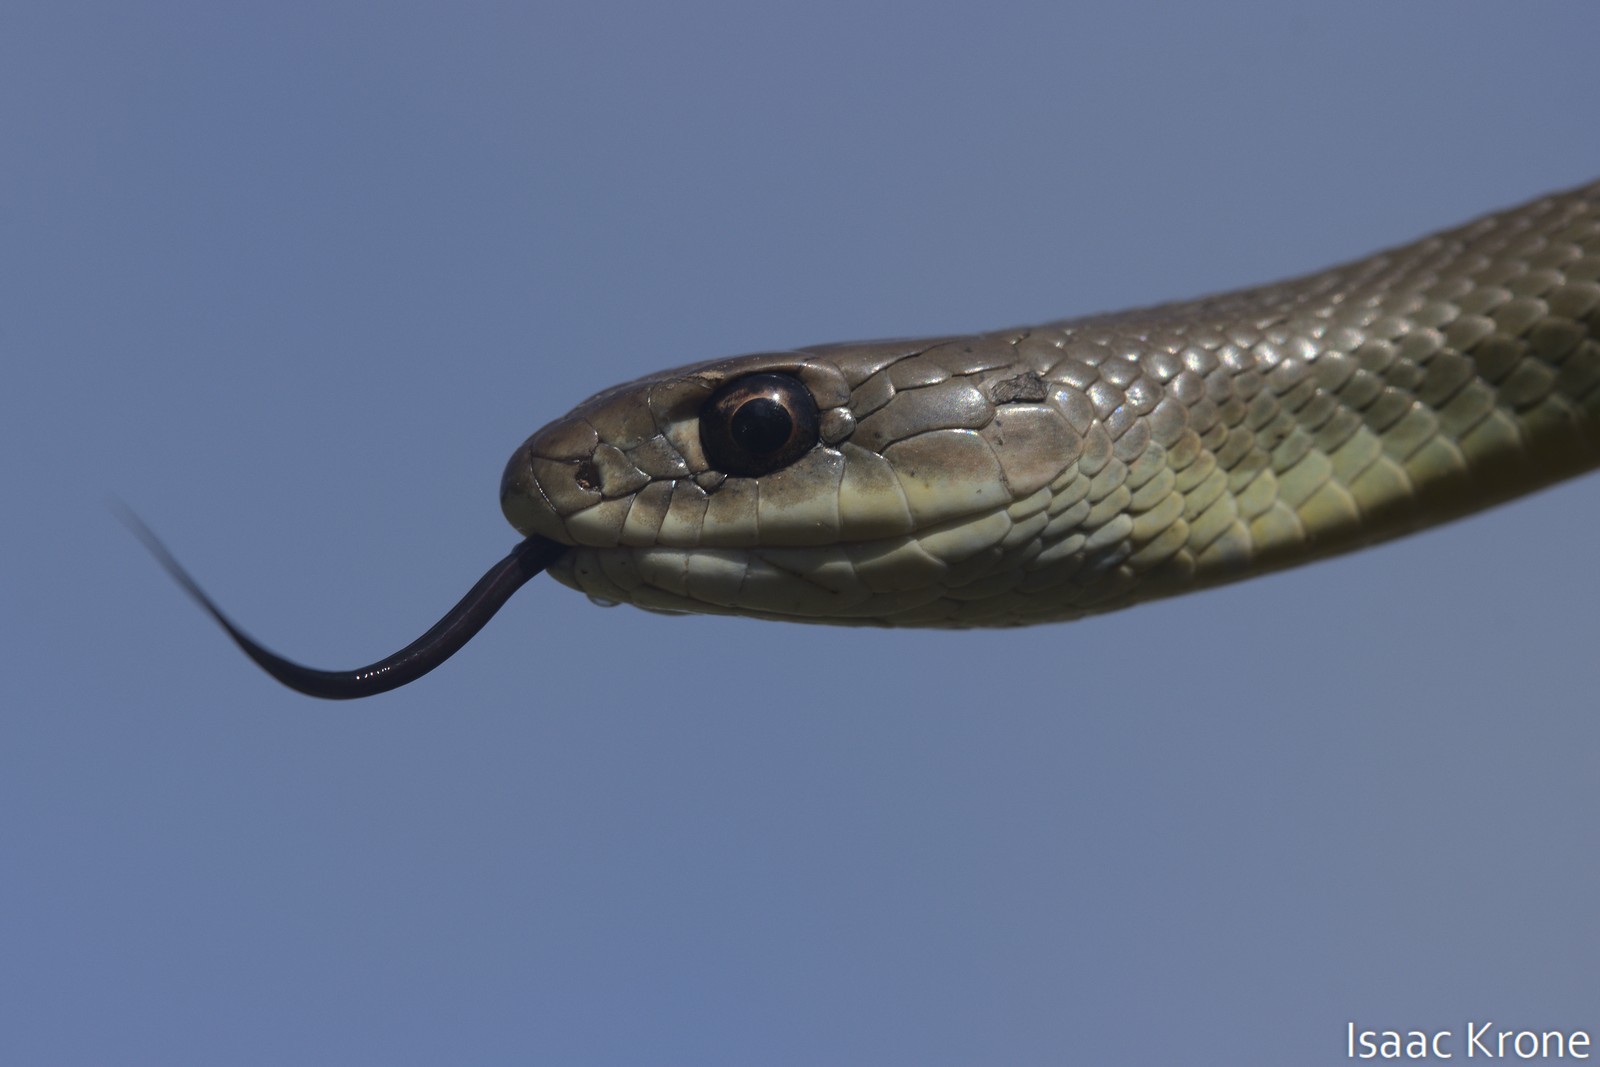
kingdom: Animalia
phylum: Chordata
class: Squamata
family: Colubridae
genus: Coluber
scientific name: Coluber constrictor
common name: Eastern racer
